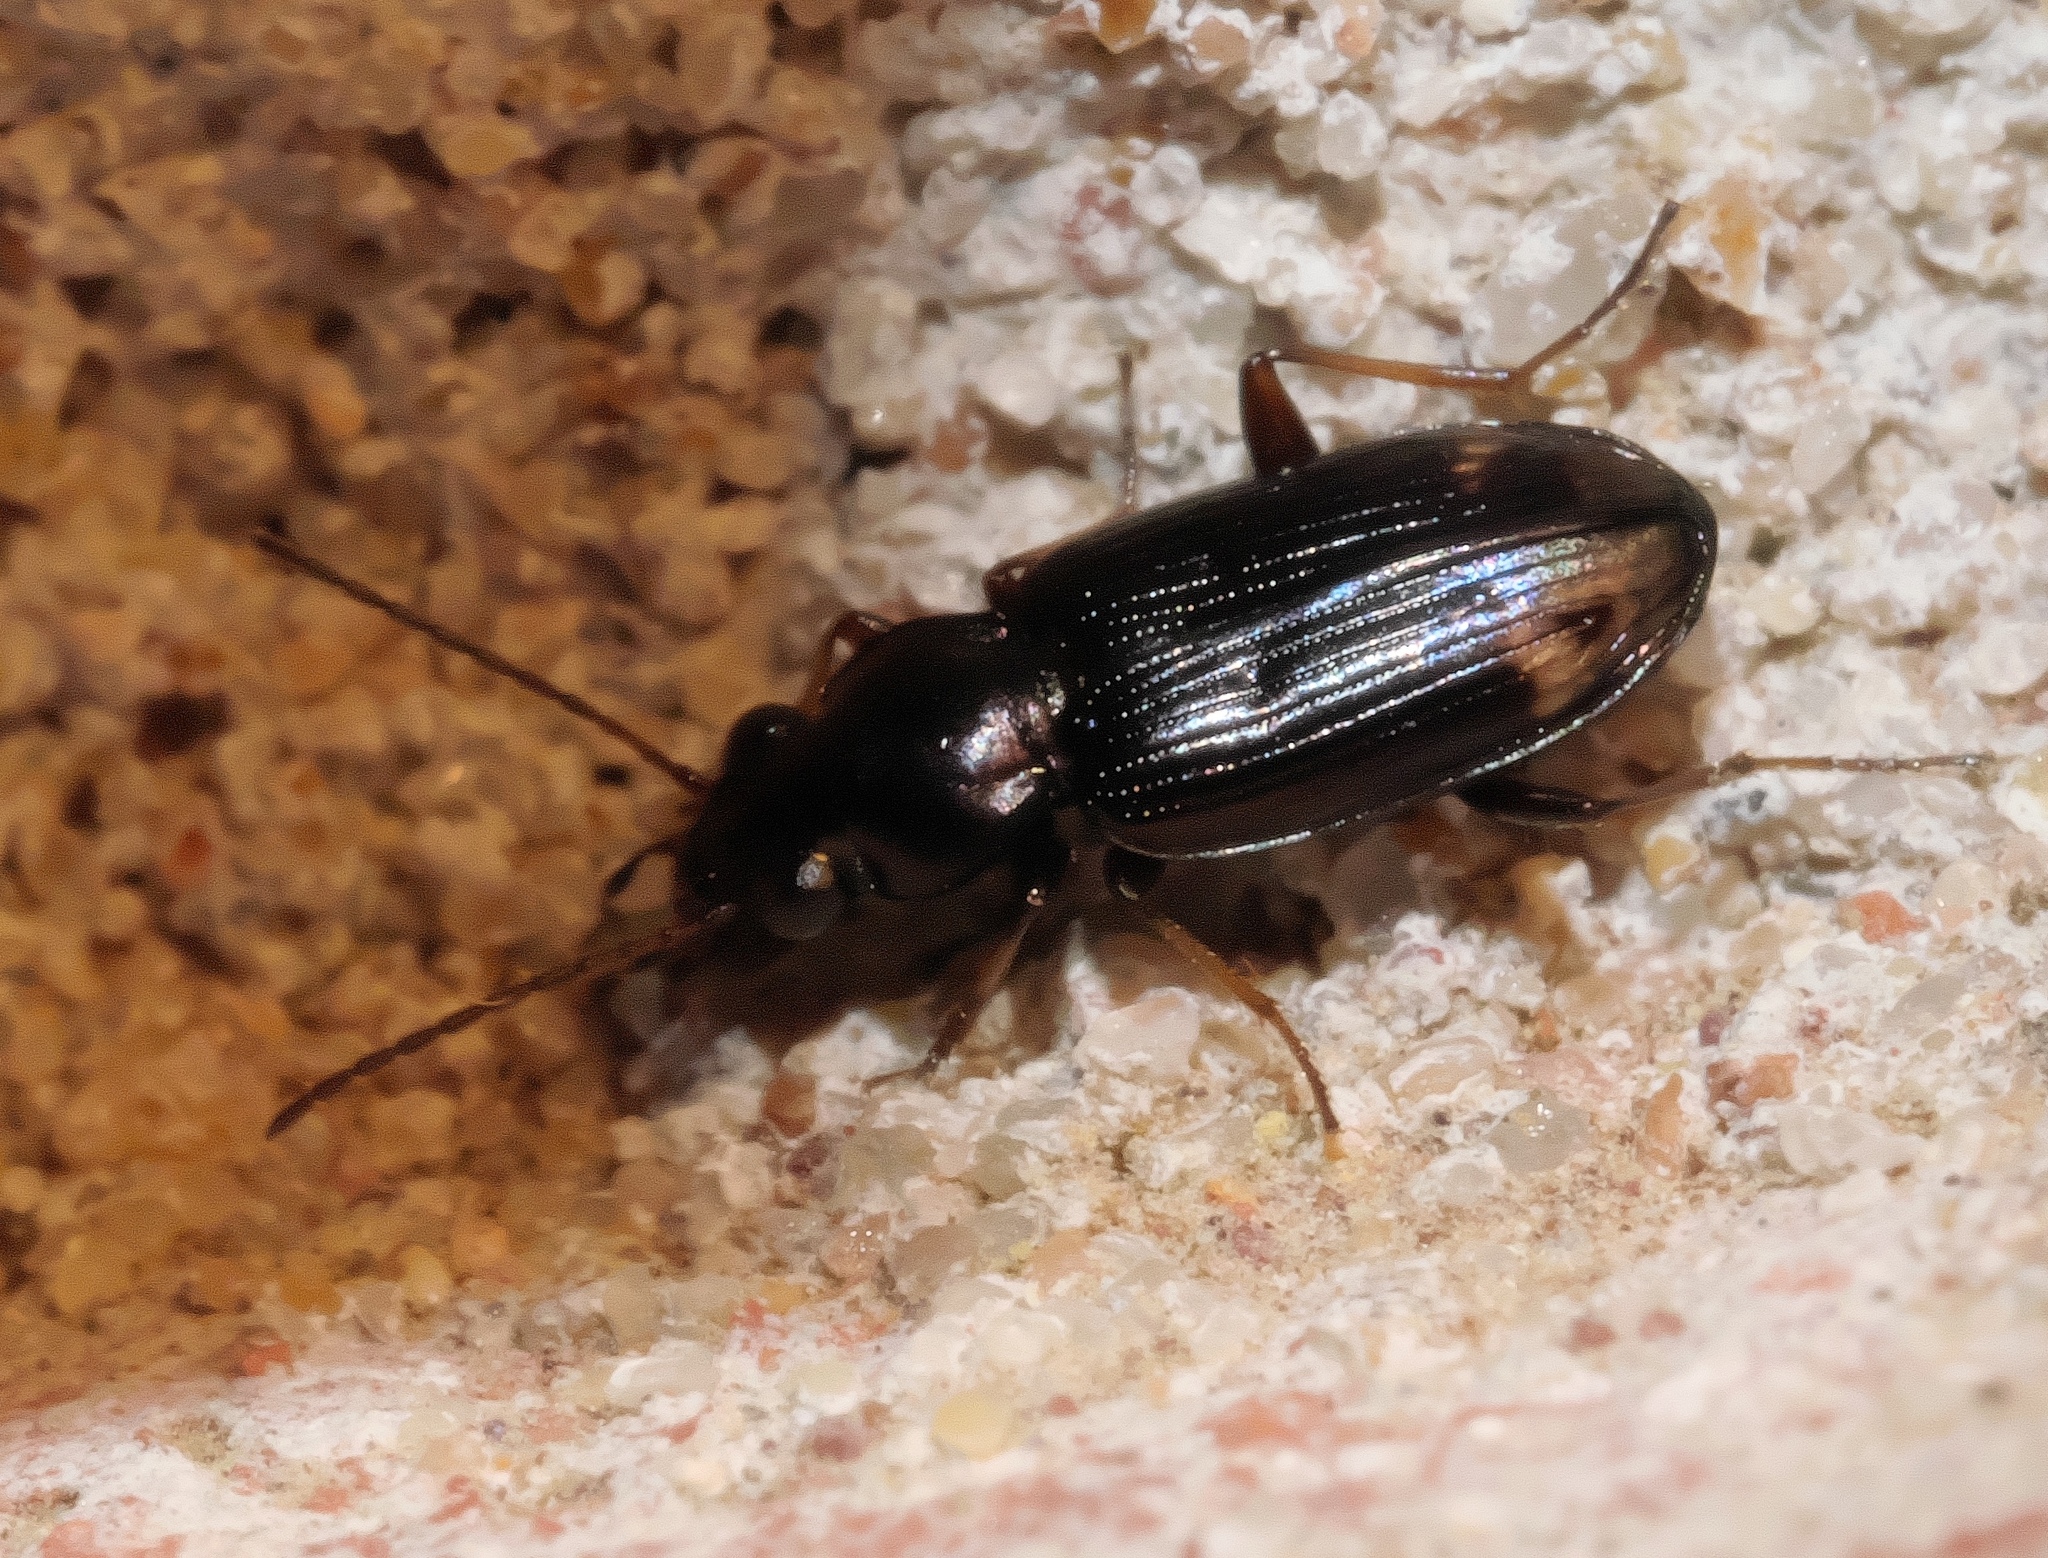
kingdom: Animalia
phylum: Arthropoda
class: Insecta
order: Coleoptera
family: Carabidae
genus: Bembidion
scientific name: Bembidion rapidum
